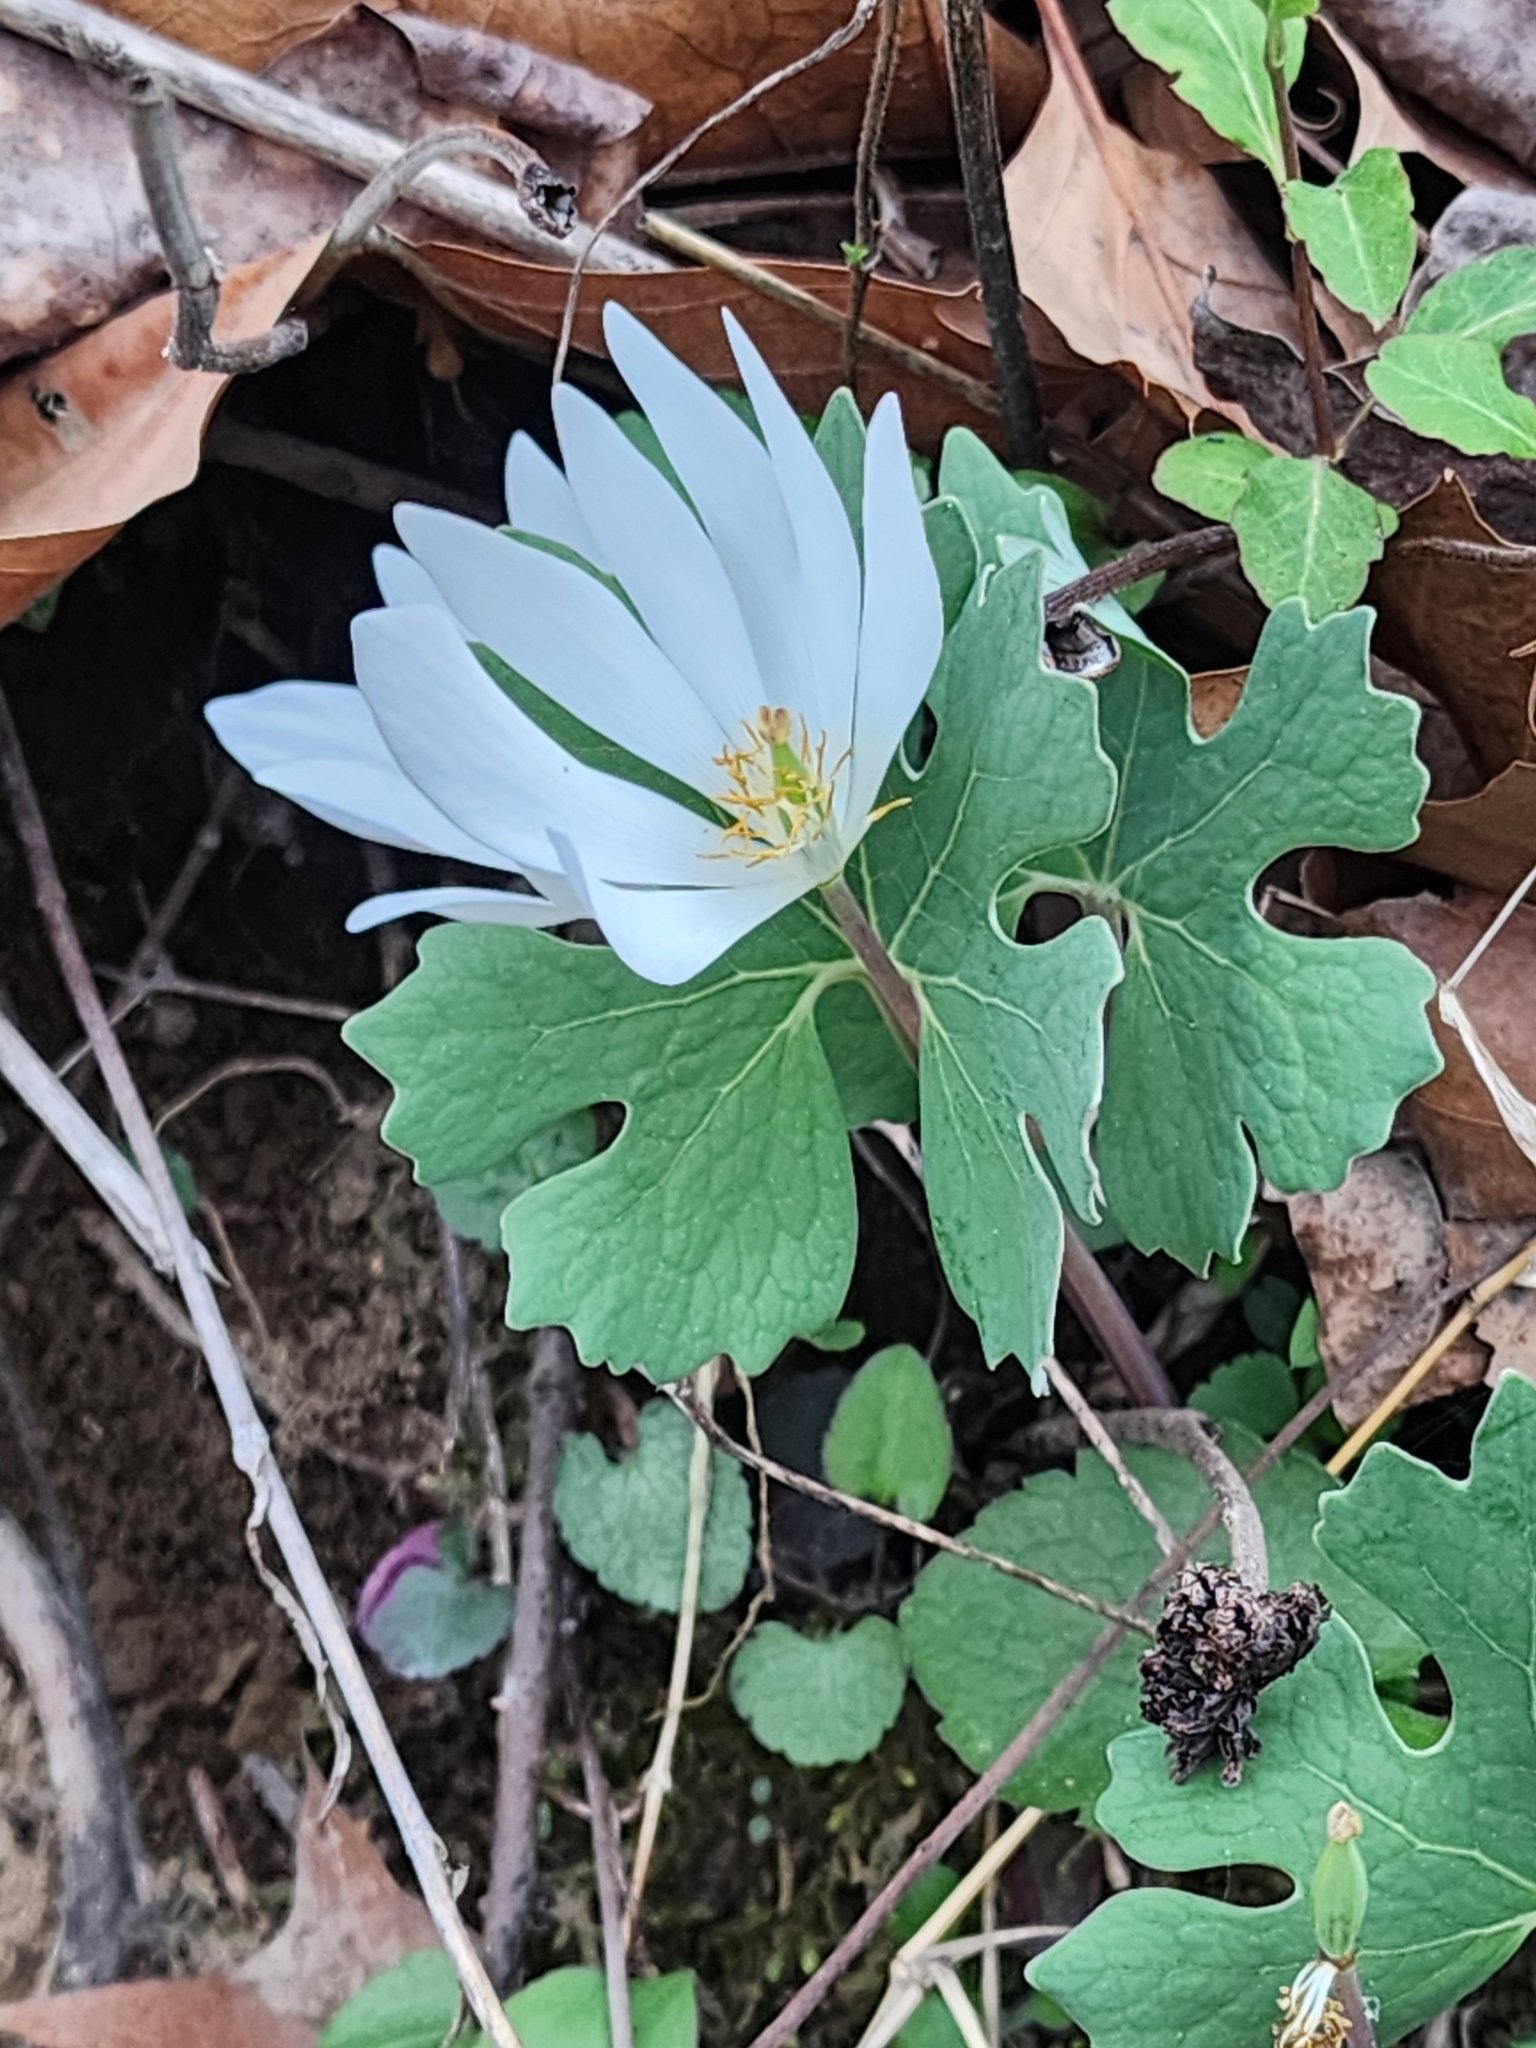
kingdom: Plantae
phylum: Tracheophyta
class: Magnoliopsida
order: Ranunculales
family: Papaveraceae
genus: Sanguinaria
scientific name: Sanguinaria canadensis
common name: Bloodroot
